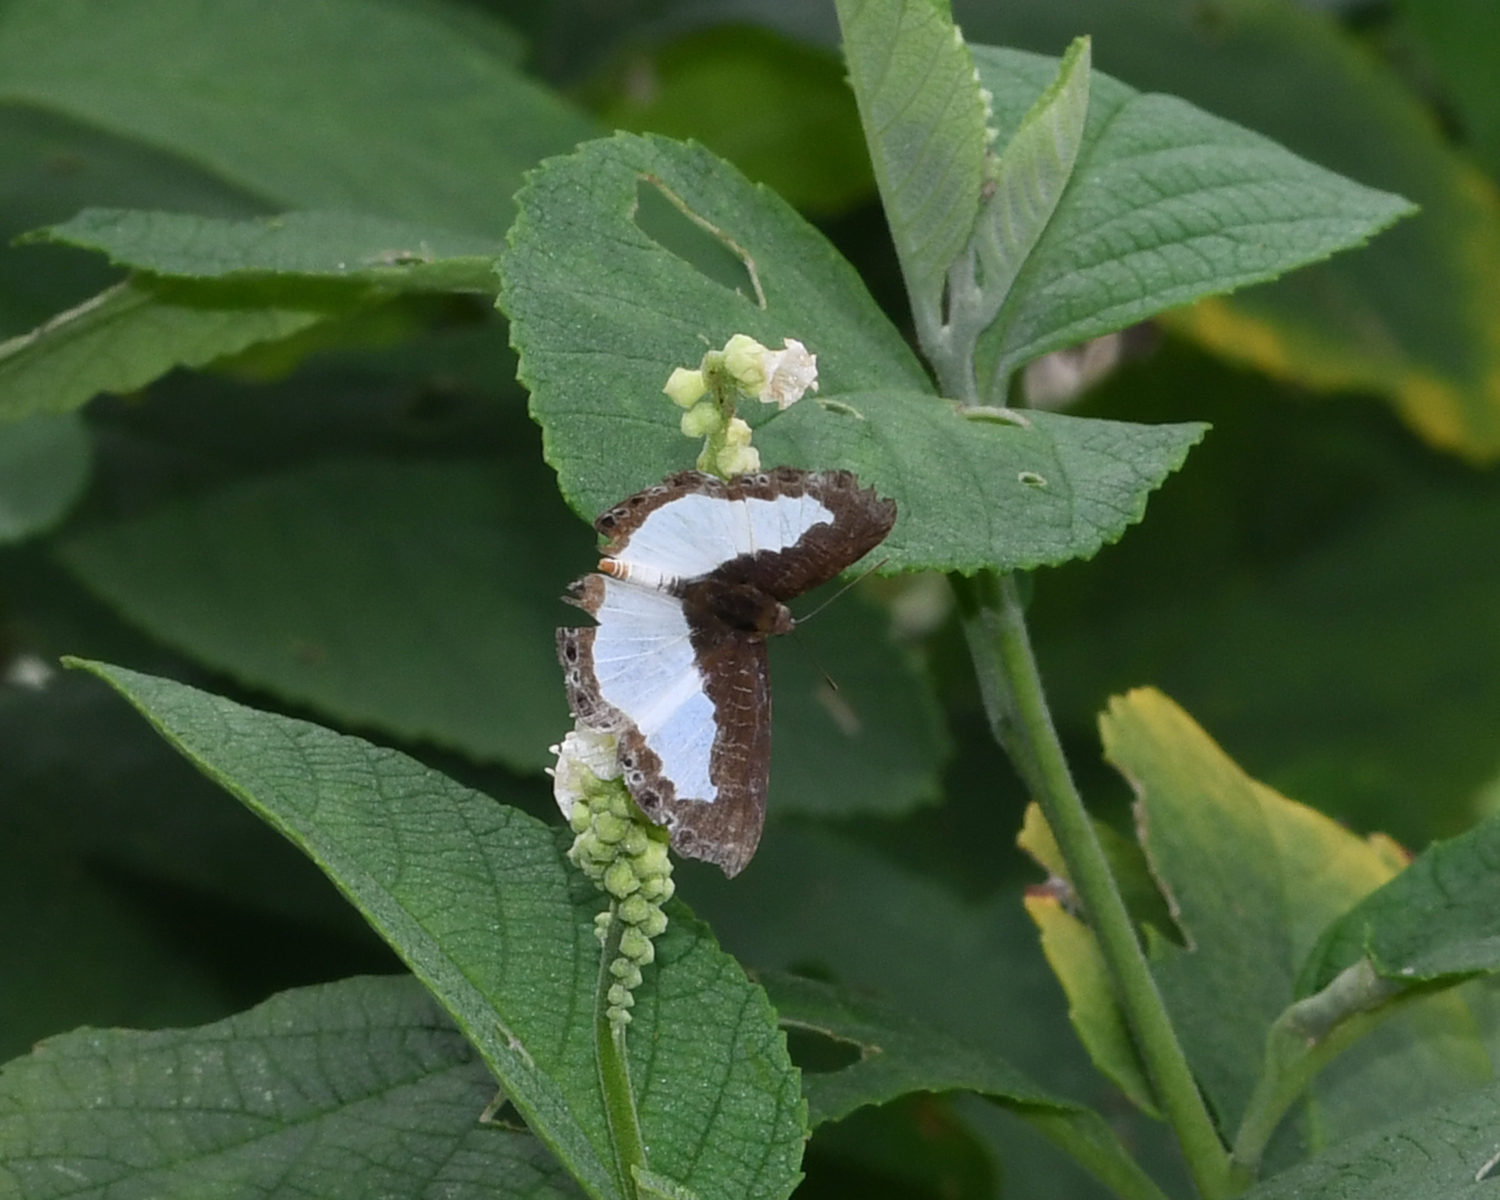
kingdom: Animalia
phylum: Arthropoda
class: Insecta
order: Lepidoptera
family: Riodinidae
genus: Juditha
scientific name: Juditha lamis
